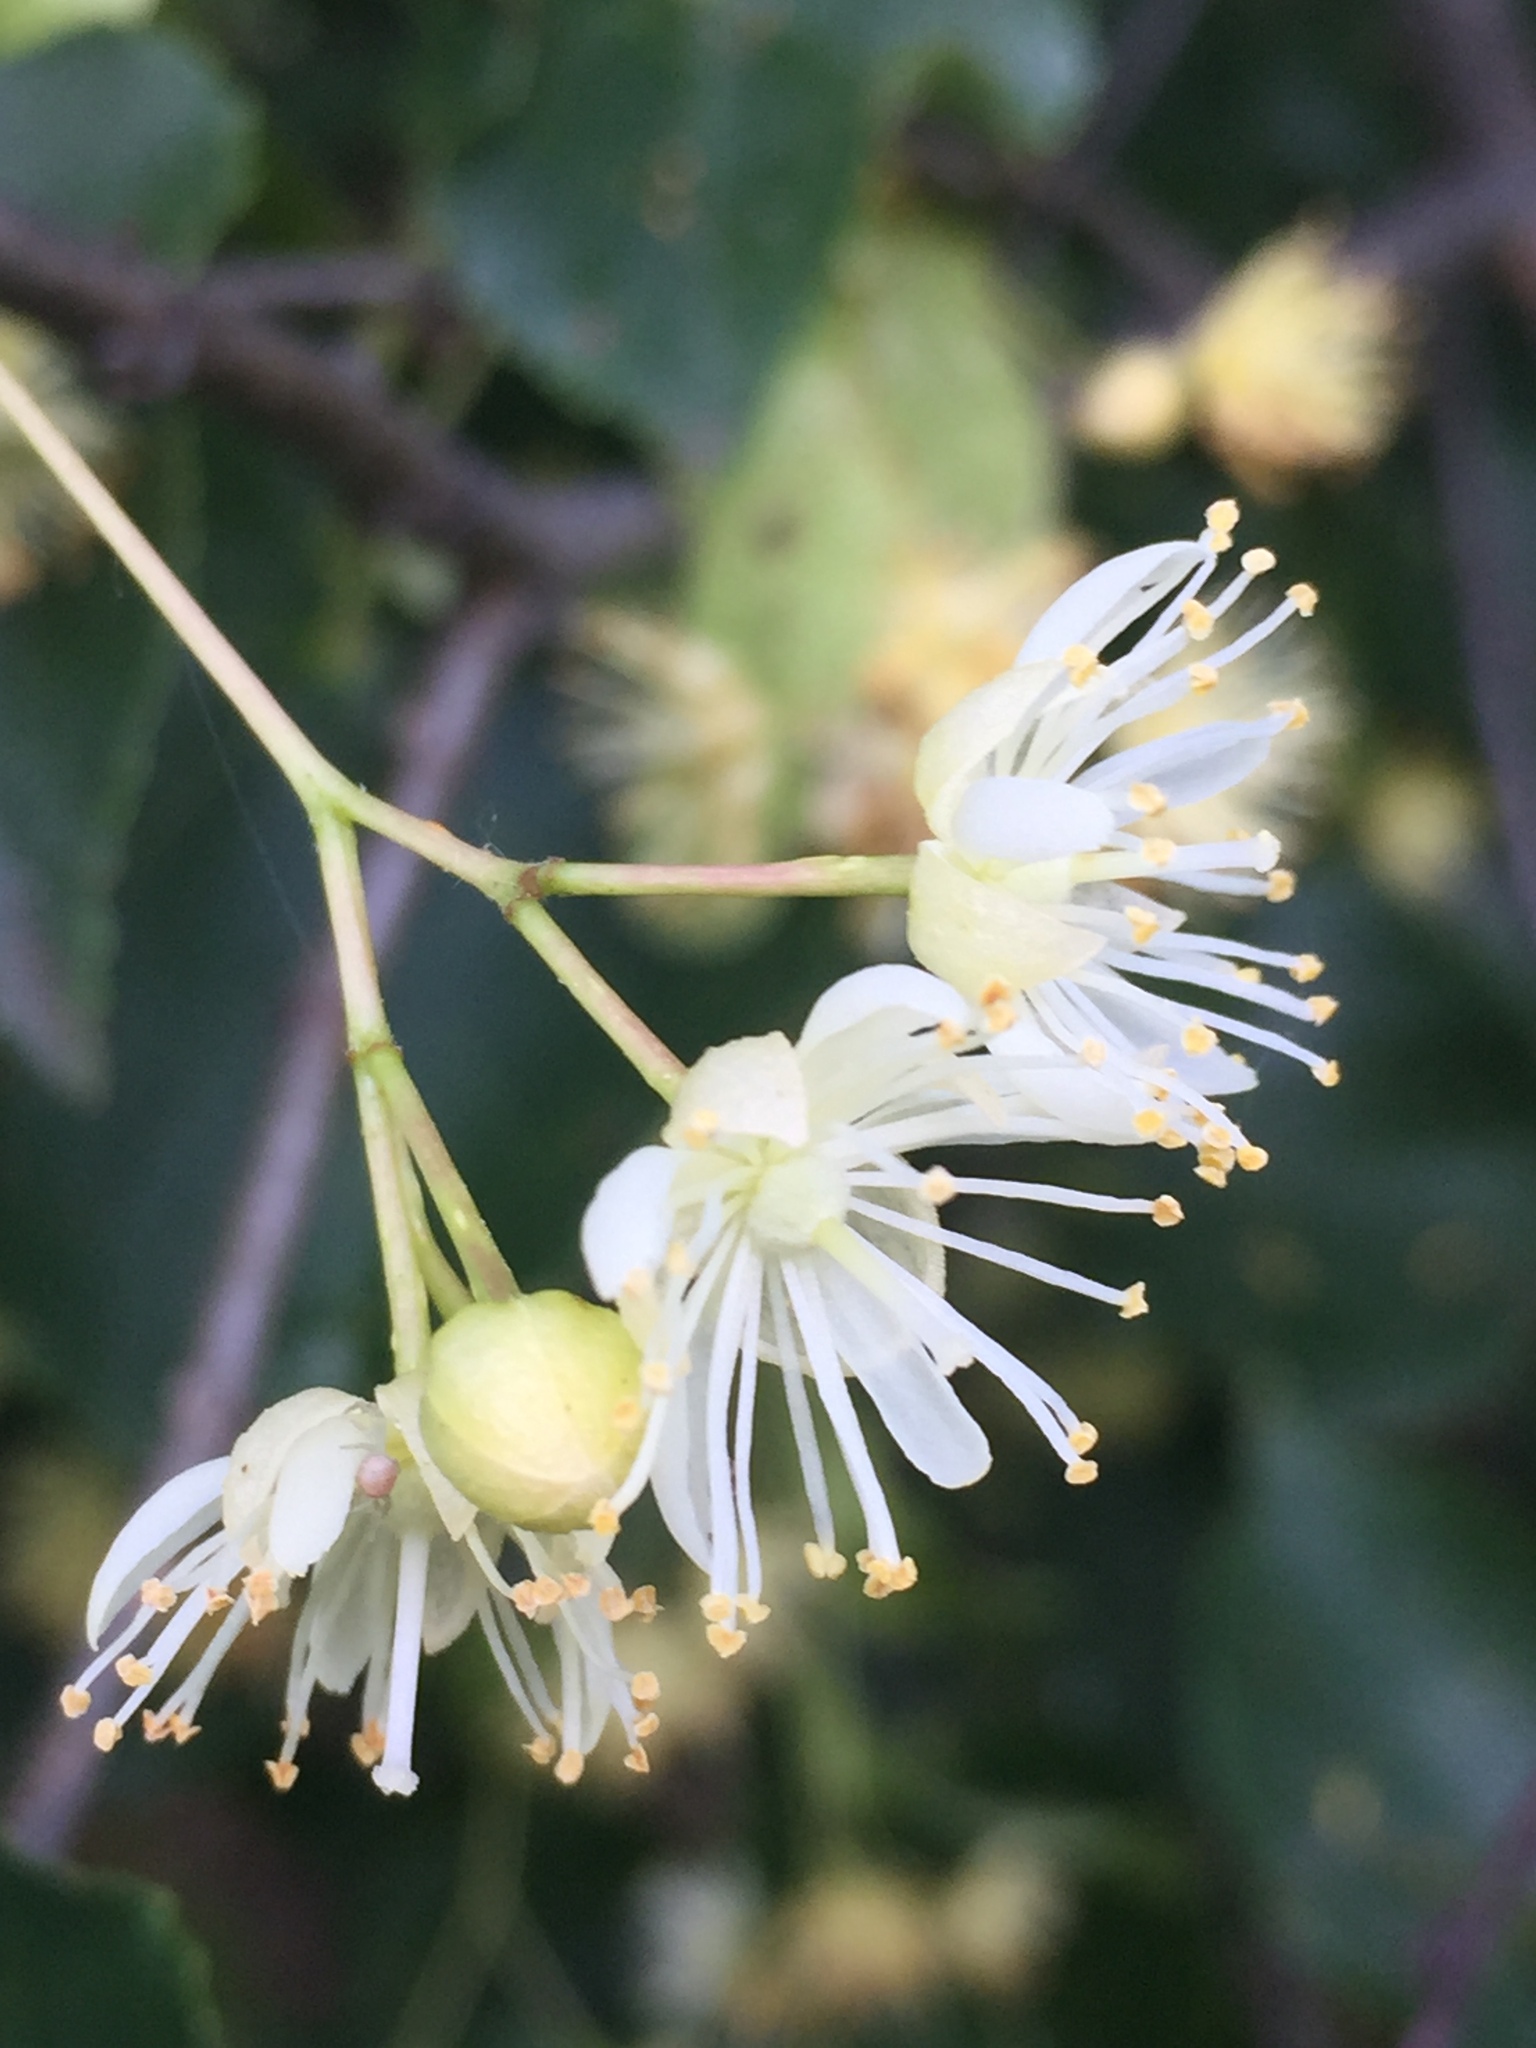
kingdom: Plantae
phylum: Tracheophyta
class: Magnoliopsida
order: Malvales
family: Malvaceae
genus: Tilia
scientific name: Tilia cordata
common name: Small-leaved lime
